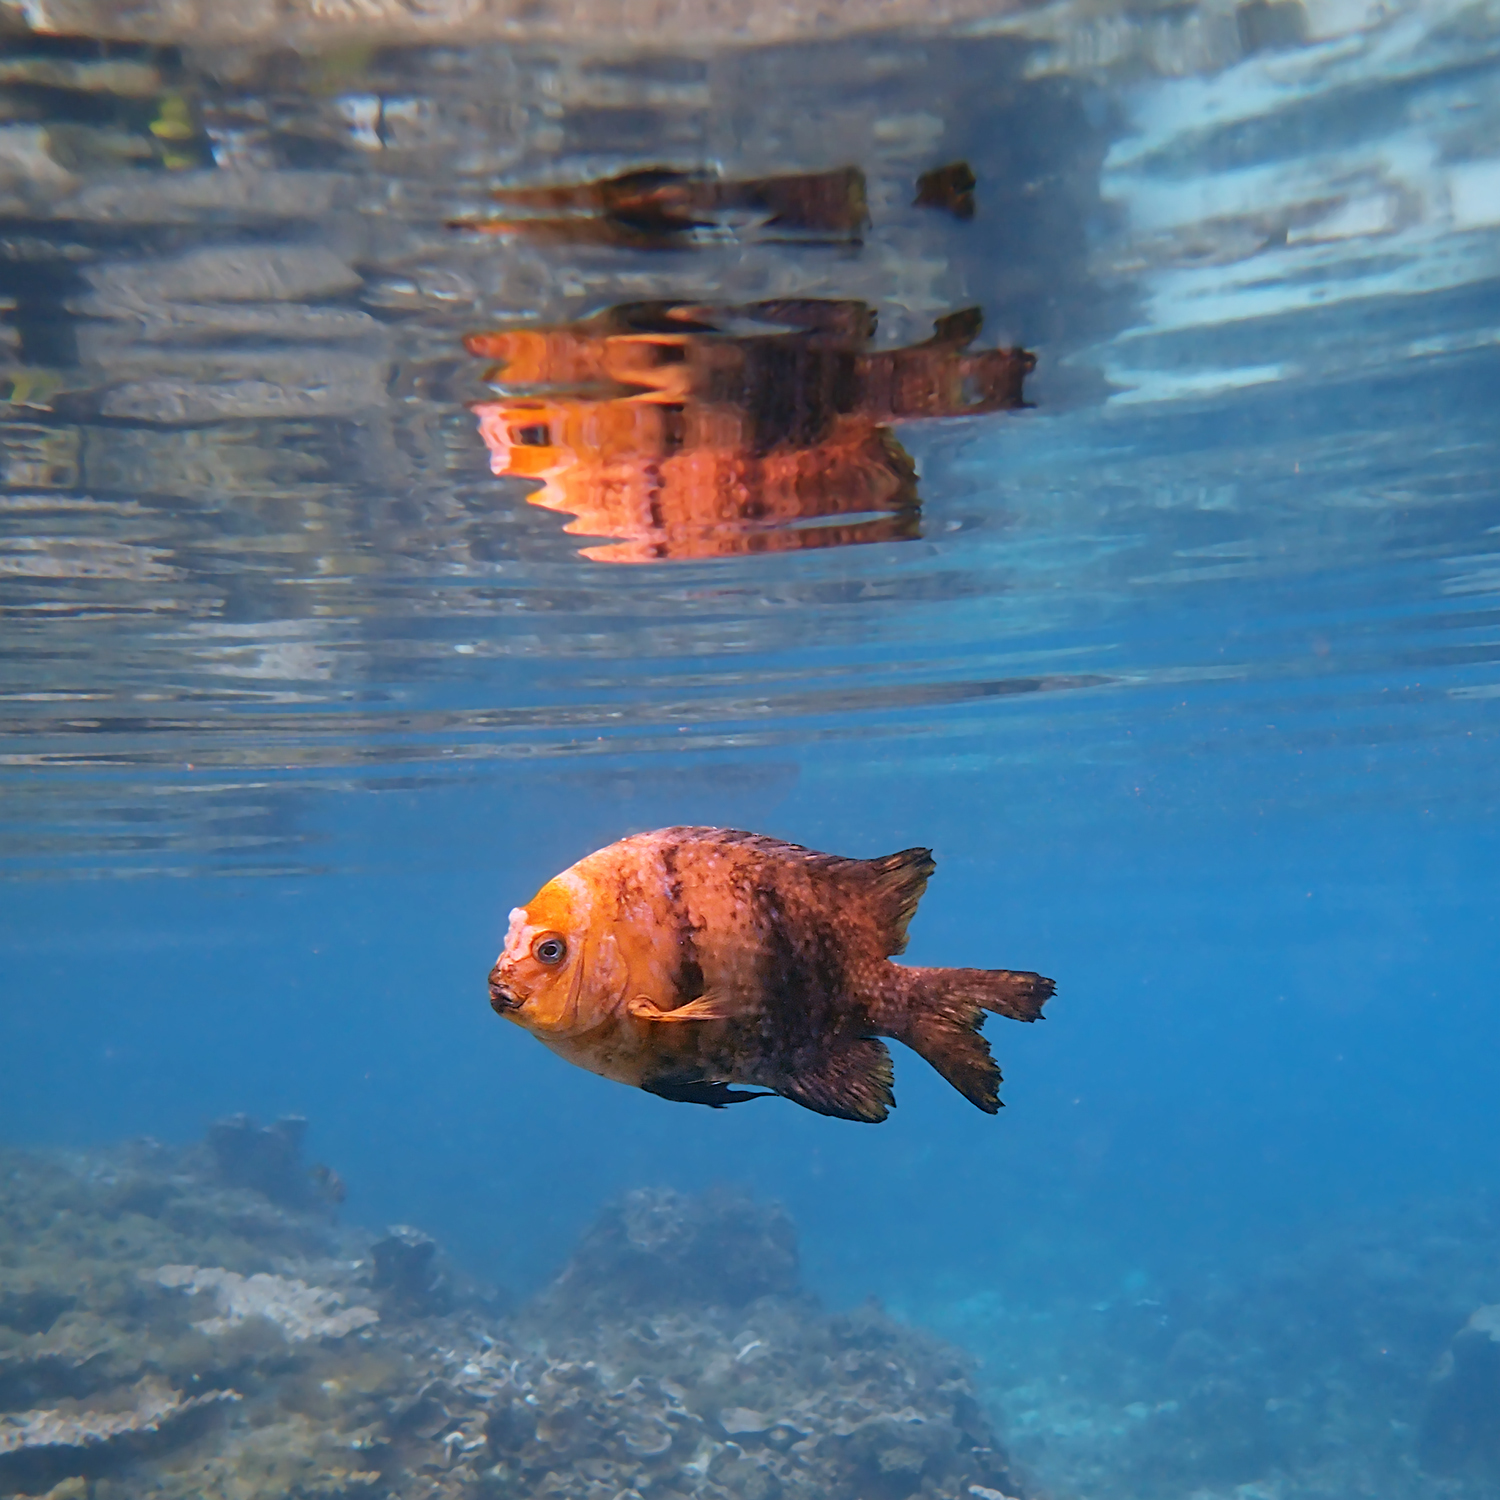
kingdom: Animalia
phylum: Chordata
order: Perciformes
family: Pomacentridae
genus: Parma
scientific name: Parma polylepis
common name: Banded parma
